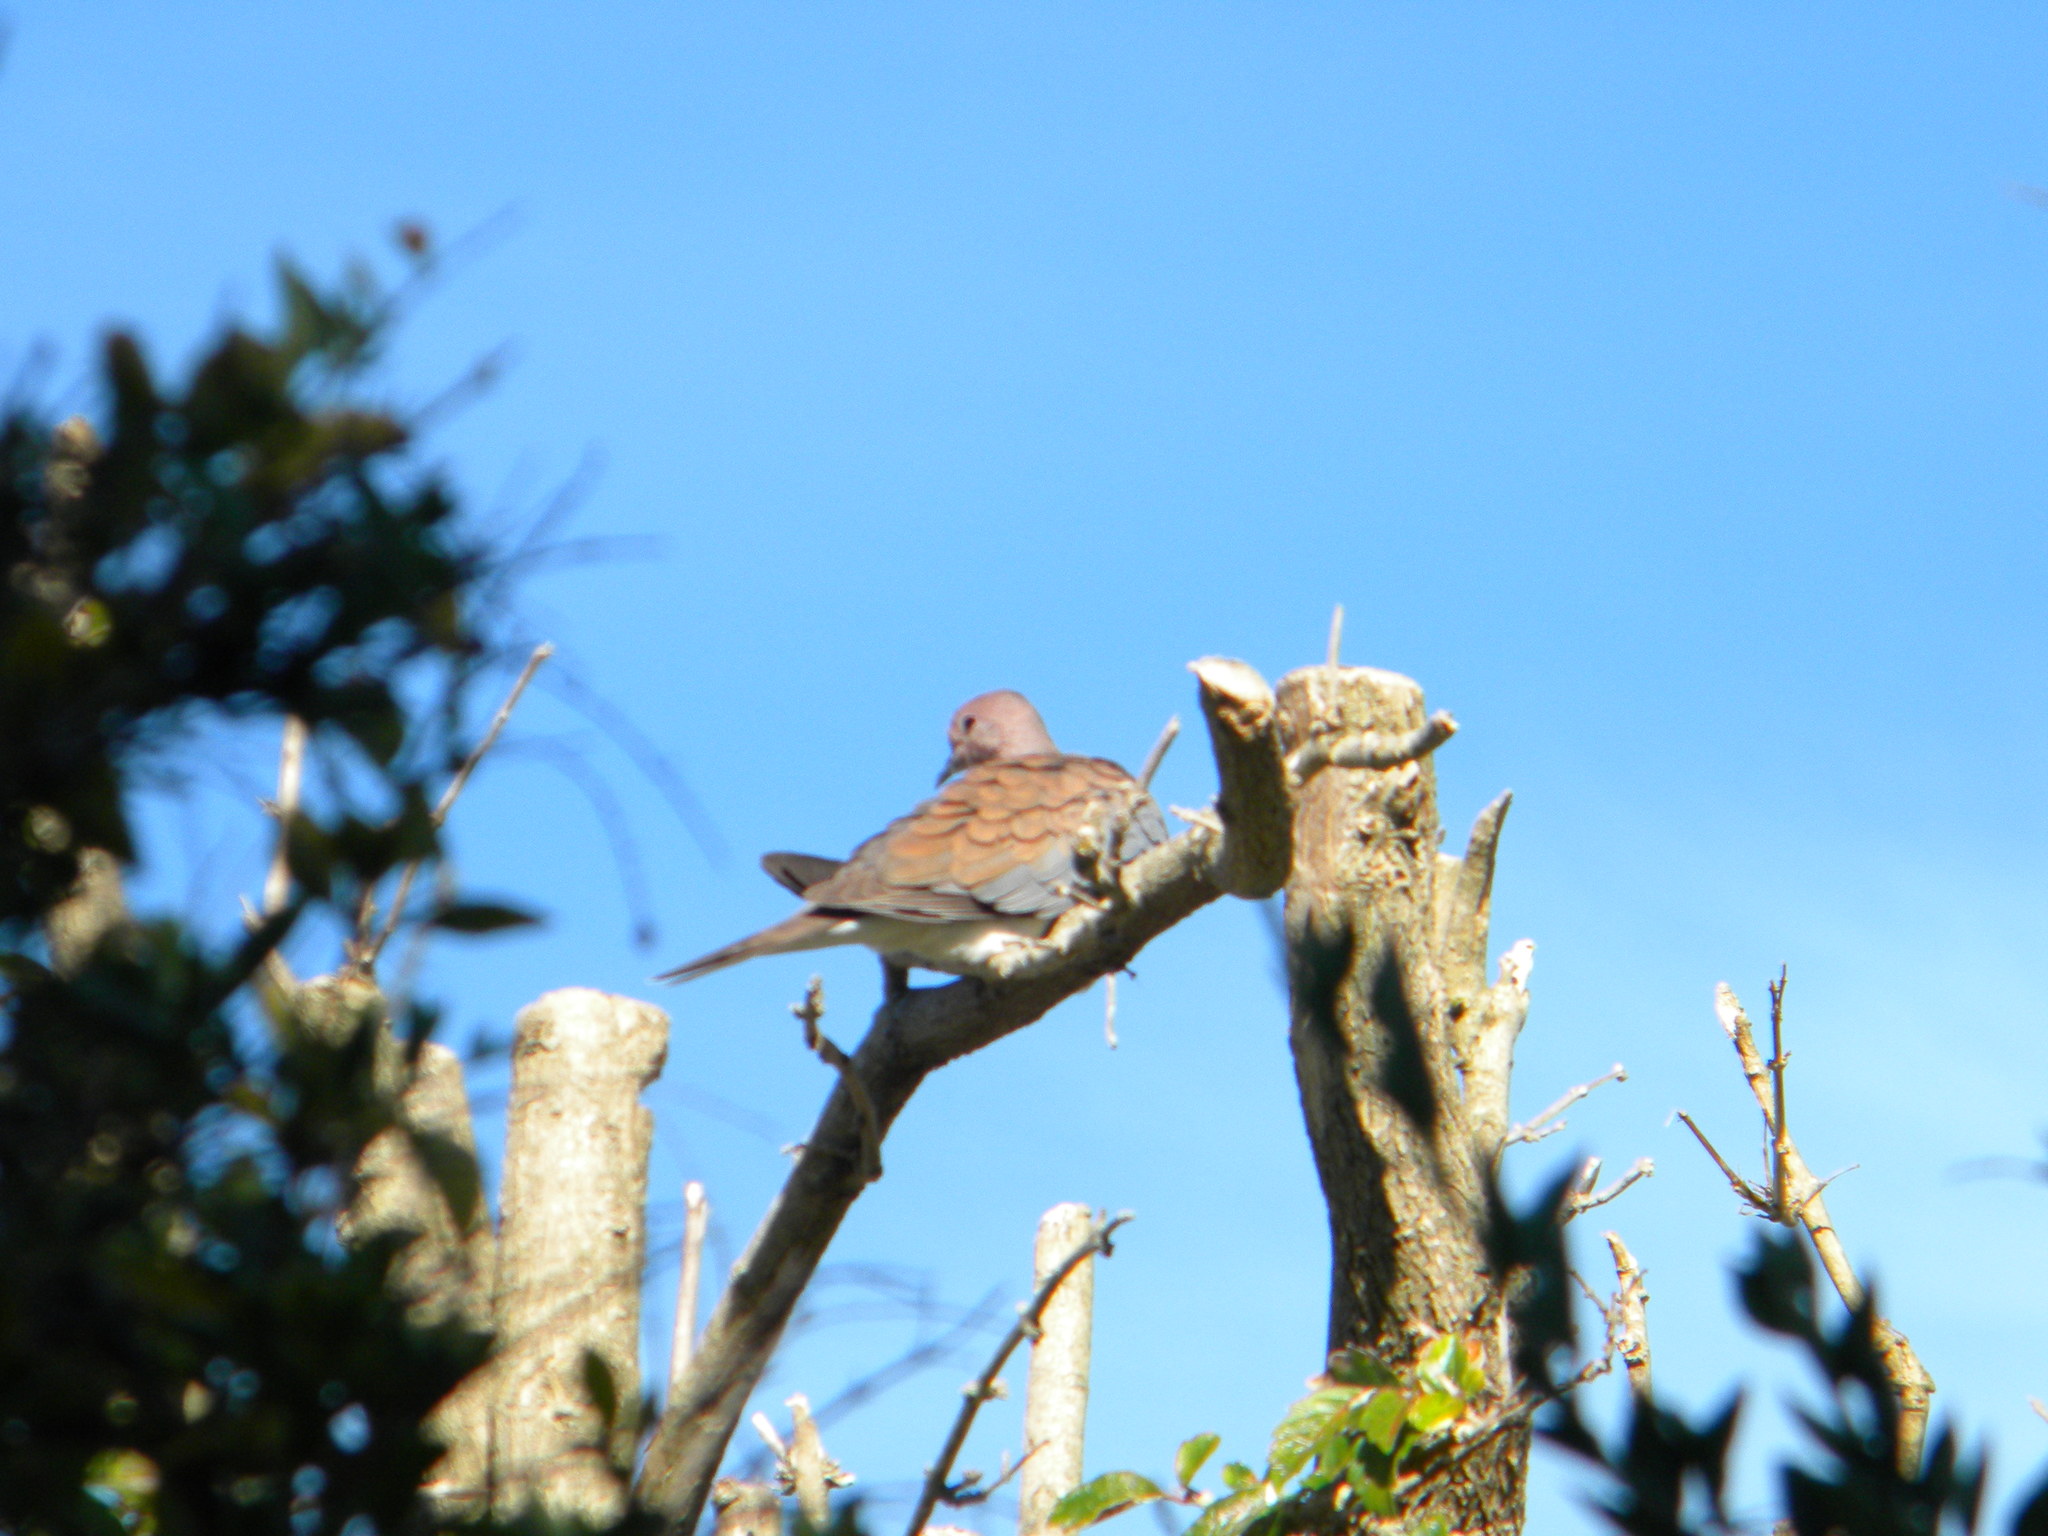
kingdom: Animalia
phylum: Chordata
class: Aves
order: Columbiformes
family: Columbidae
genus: Spilopelia
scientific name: Spilopelia senegalensis
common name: Laughing dove
